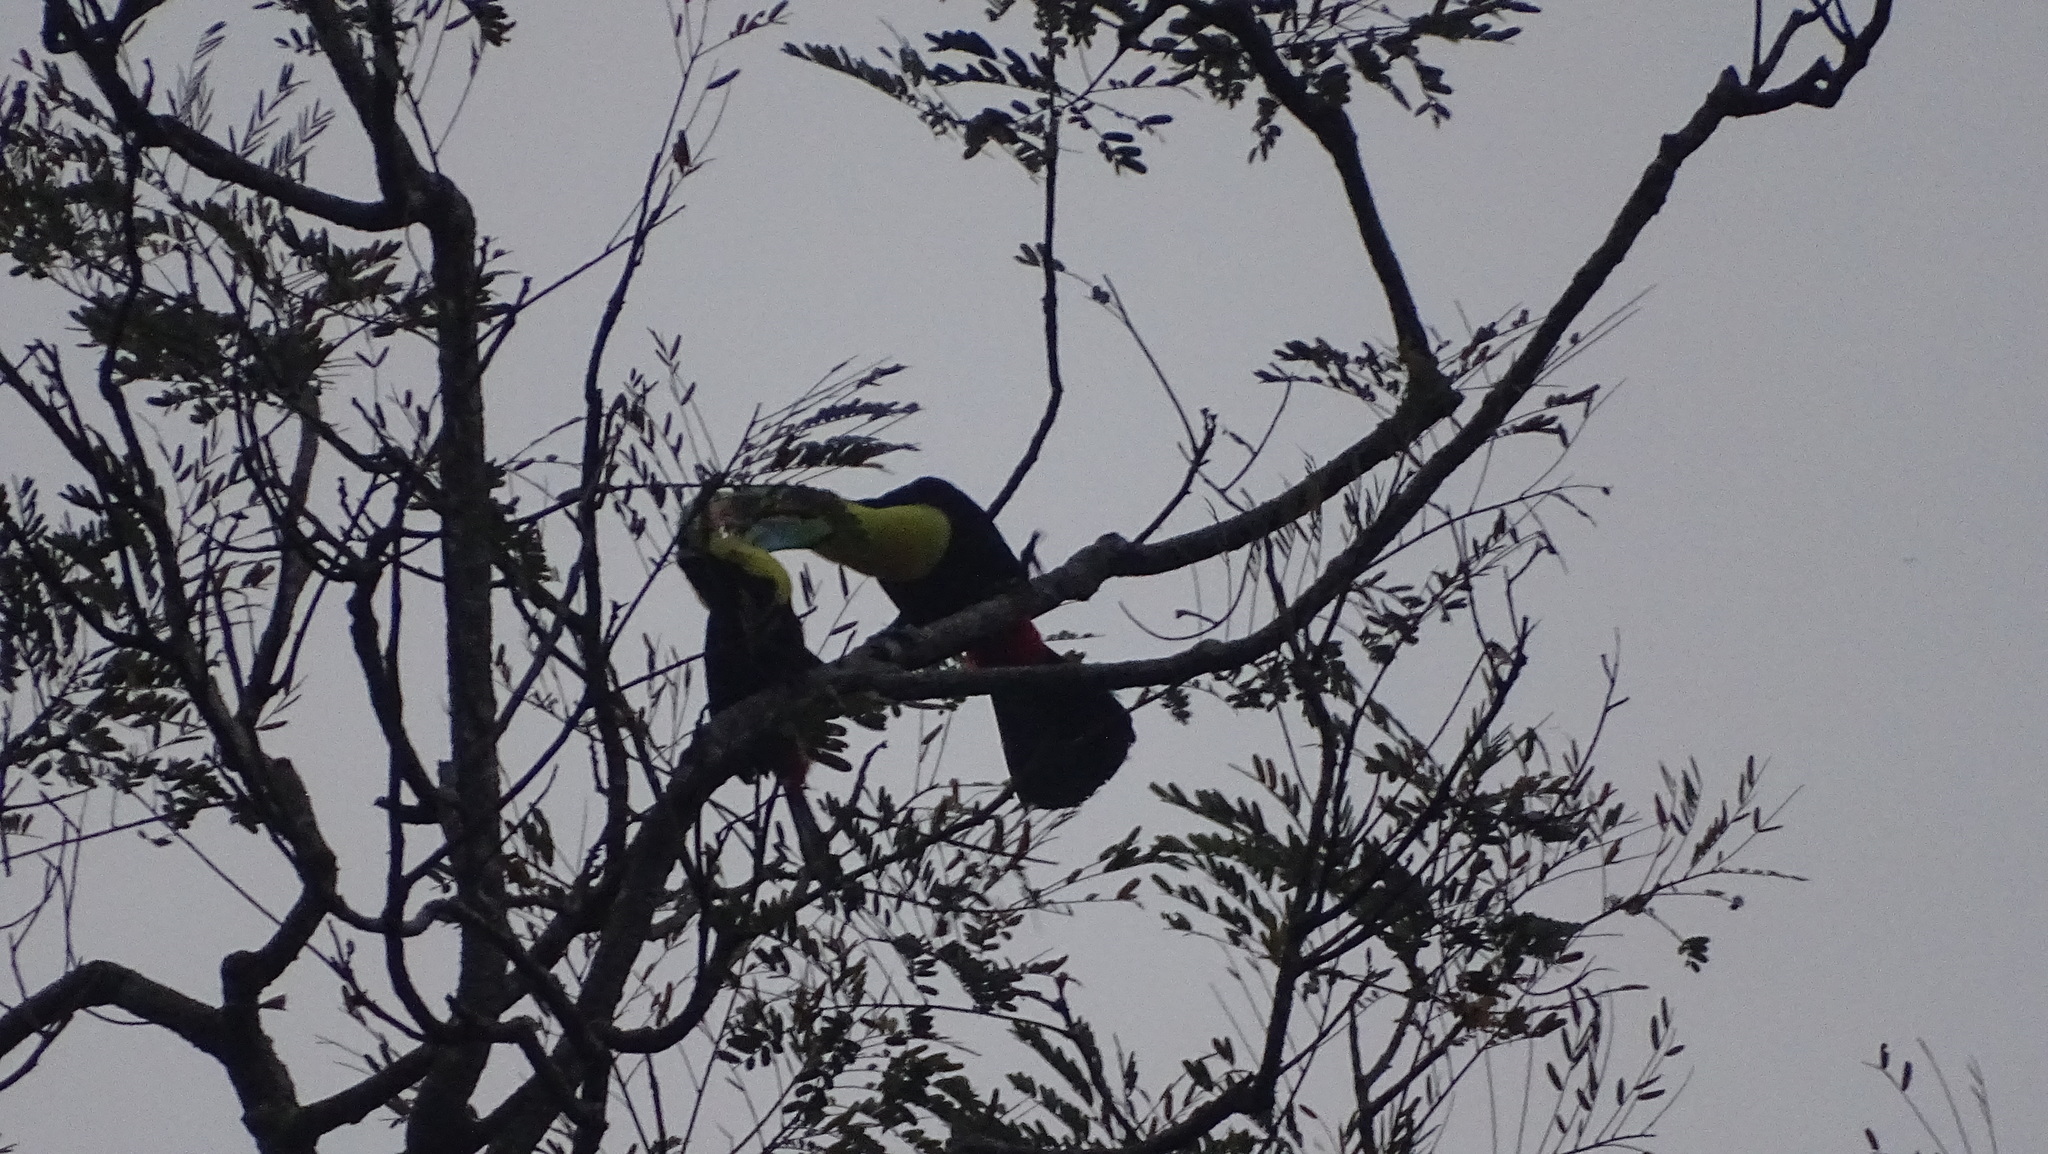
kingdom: Animalia
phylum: Chordata
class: Aves
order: Piciformes
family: Ramphastidae
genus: Ramphastos
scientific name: Ramphastos sulfuratus
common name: Keel-billed toucan
